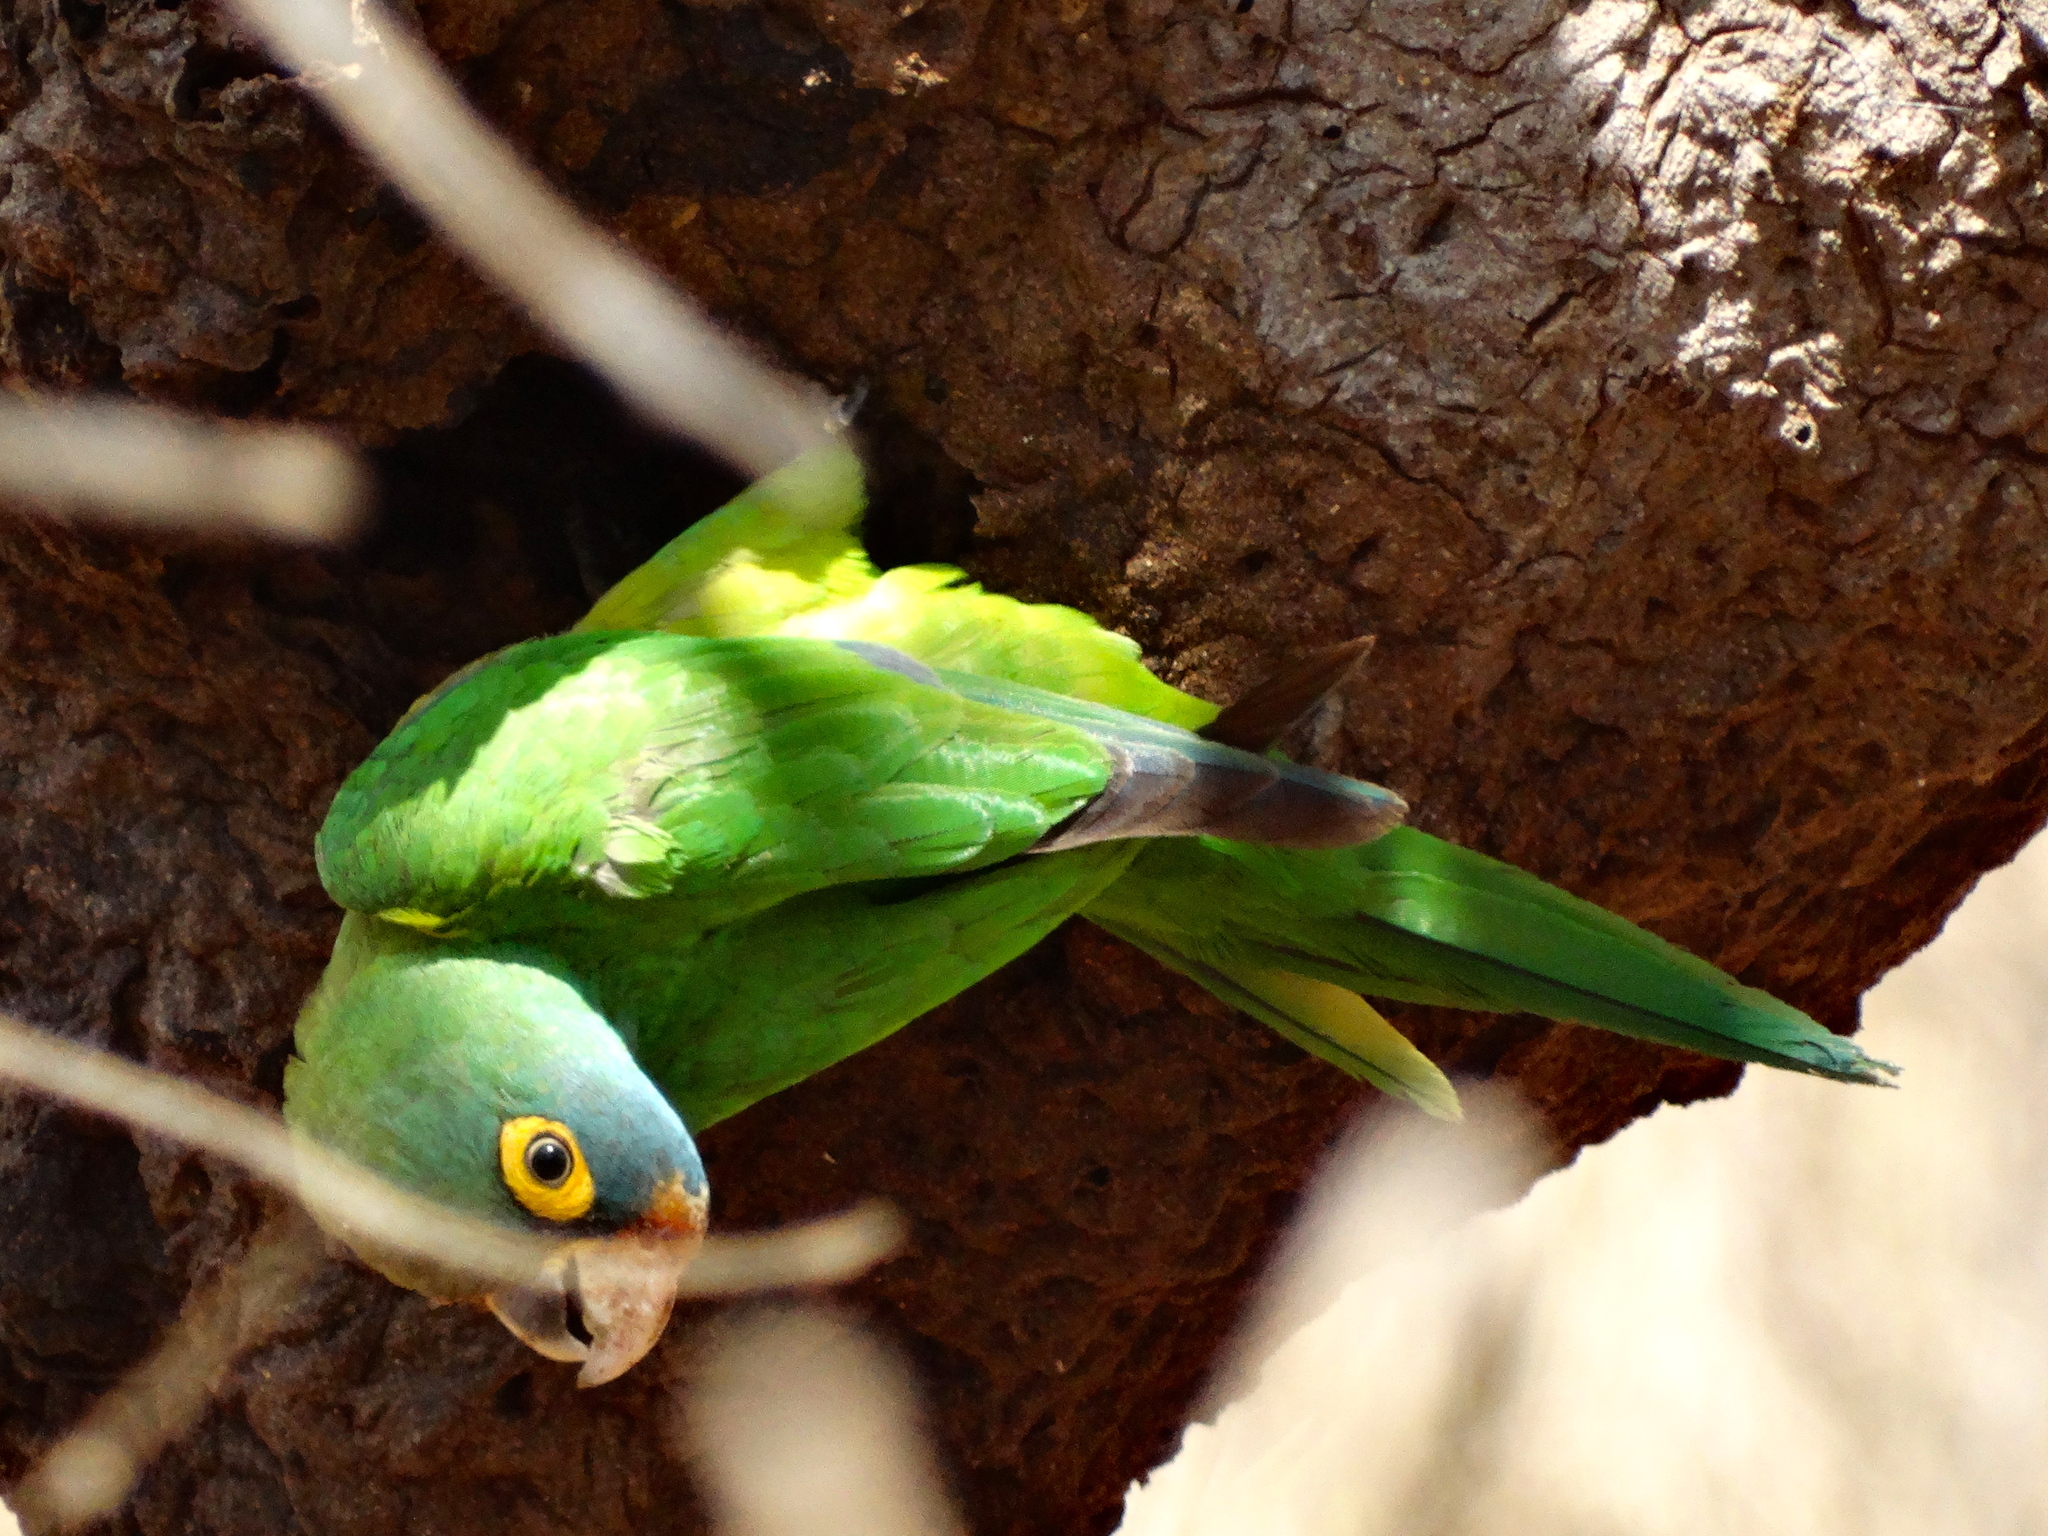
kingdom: Animalia
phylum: Chordata
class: Aves
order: Psittaciformes
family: Psittacidae
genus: Aratinga
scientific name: Aratinga canicularis
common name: Orange-fronted parakeet
